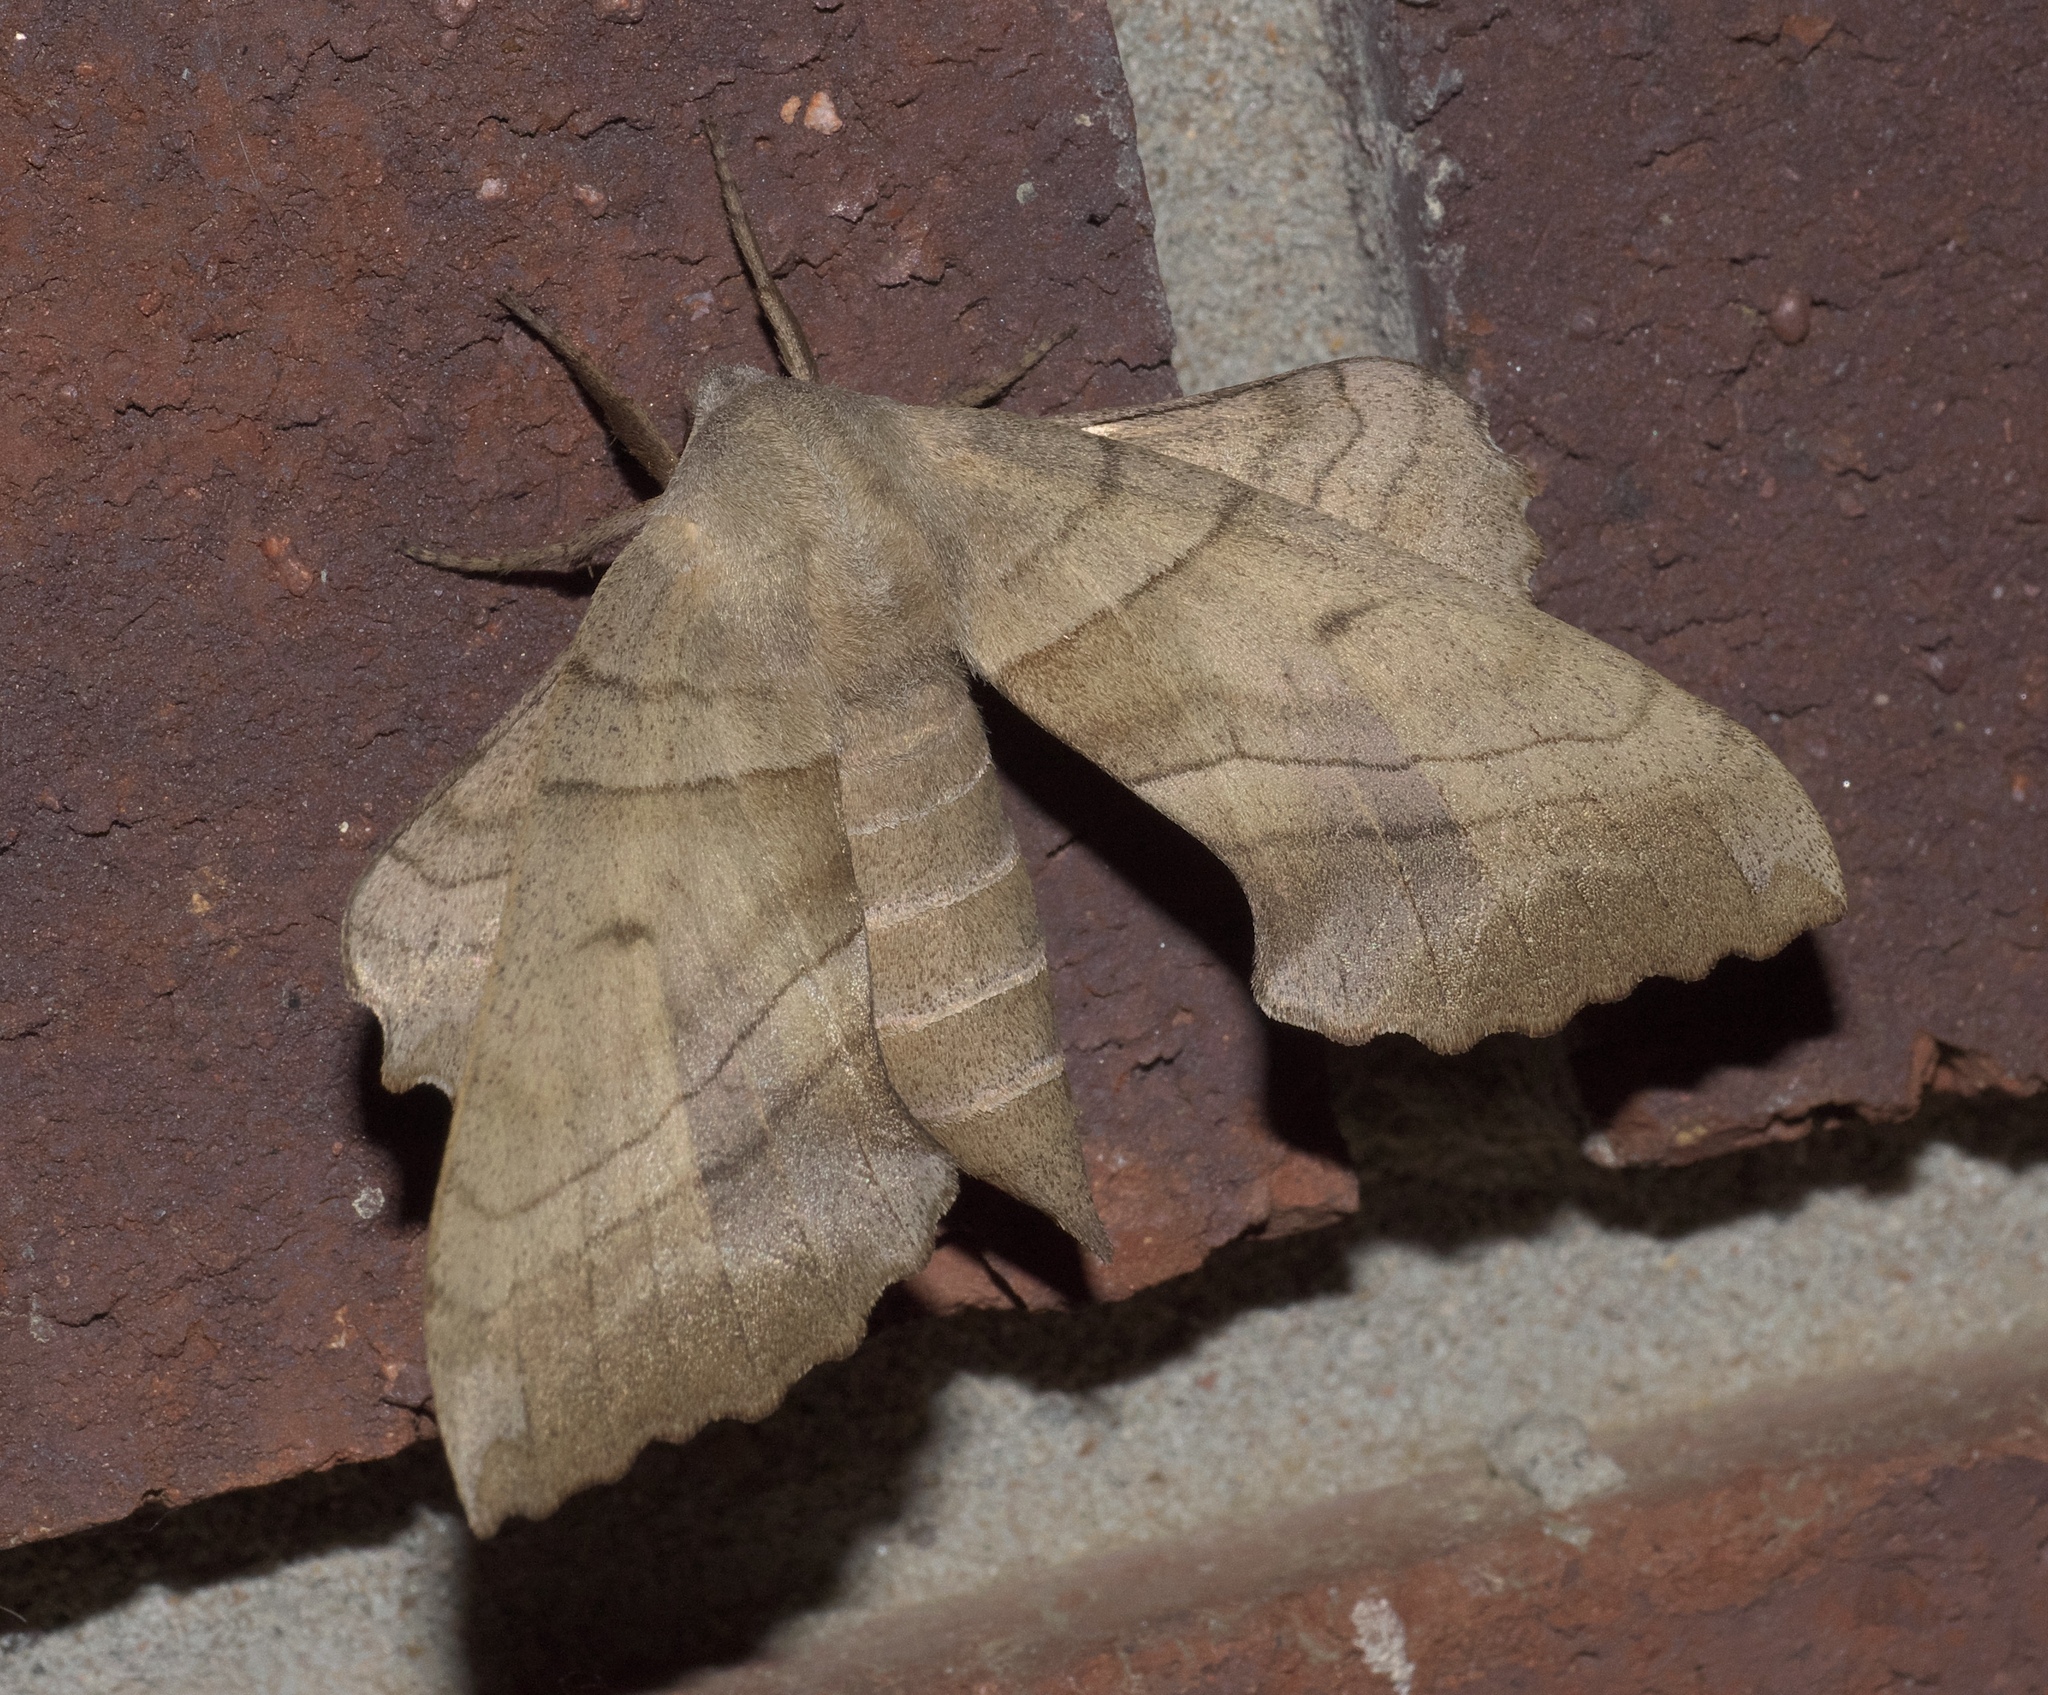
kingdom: Animalia
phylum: Arthropoda
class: Insecta
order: Lepidoptera
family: Sphingidae
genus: Amorpha
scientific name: Amorpha juglandis
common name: Walnut sphinx
